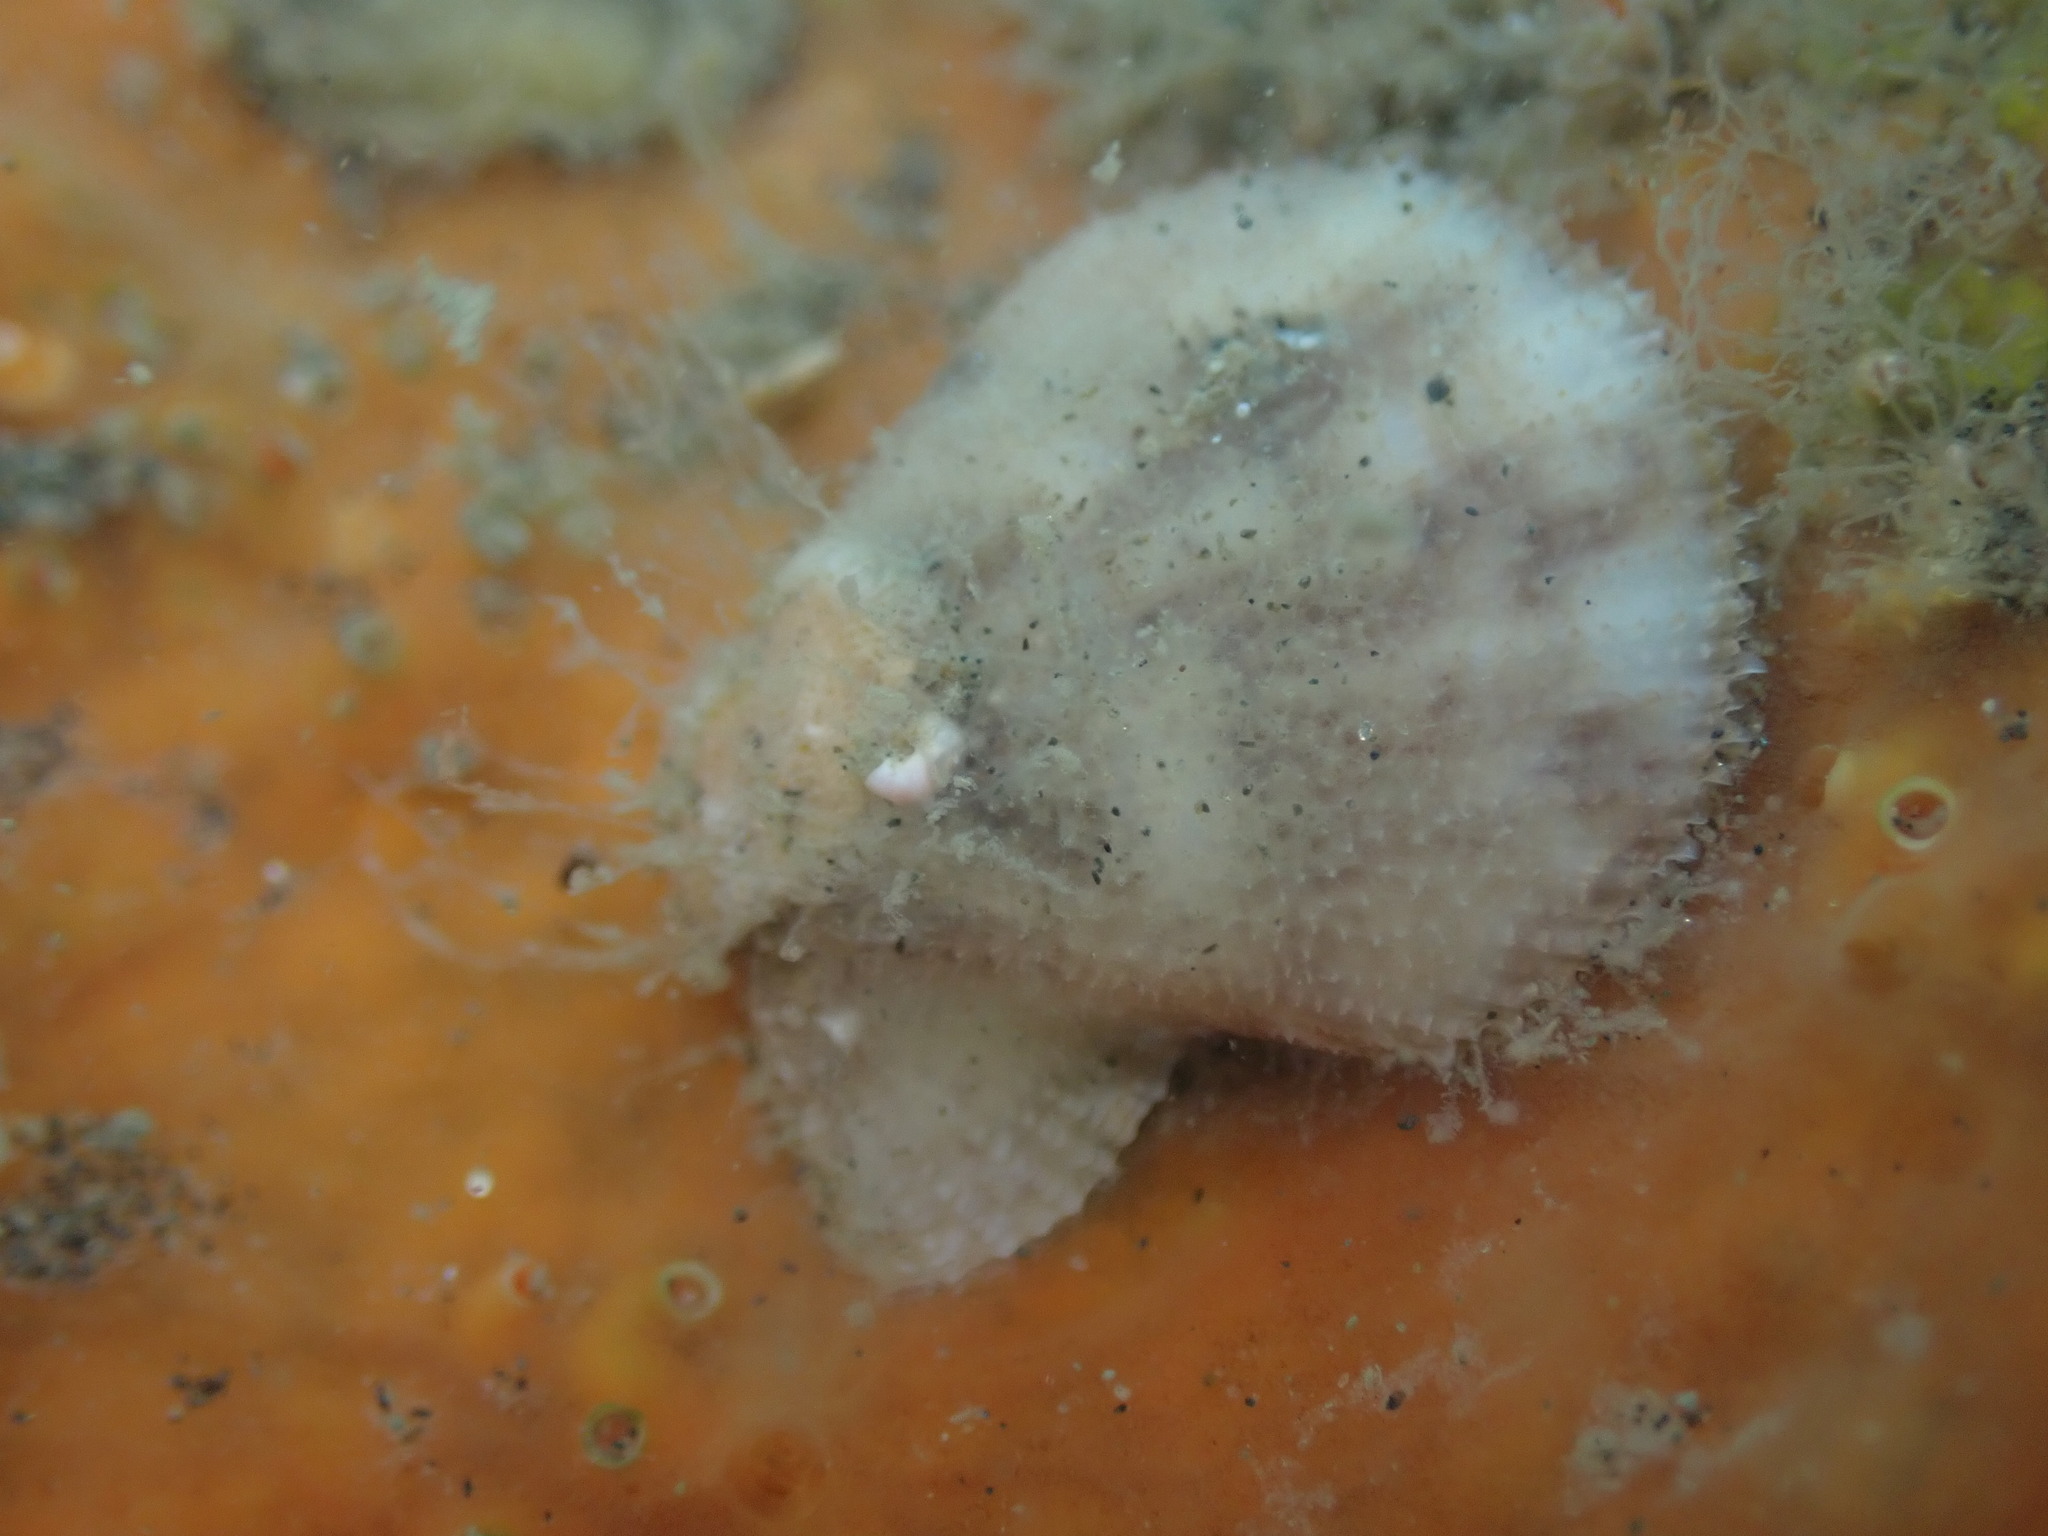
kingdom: Animalia
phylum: Mollusca
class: Bivalvia
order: Pectinida
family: Pectinidae
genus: Talochlamys
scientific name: Talochlamys zelandiae
